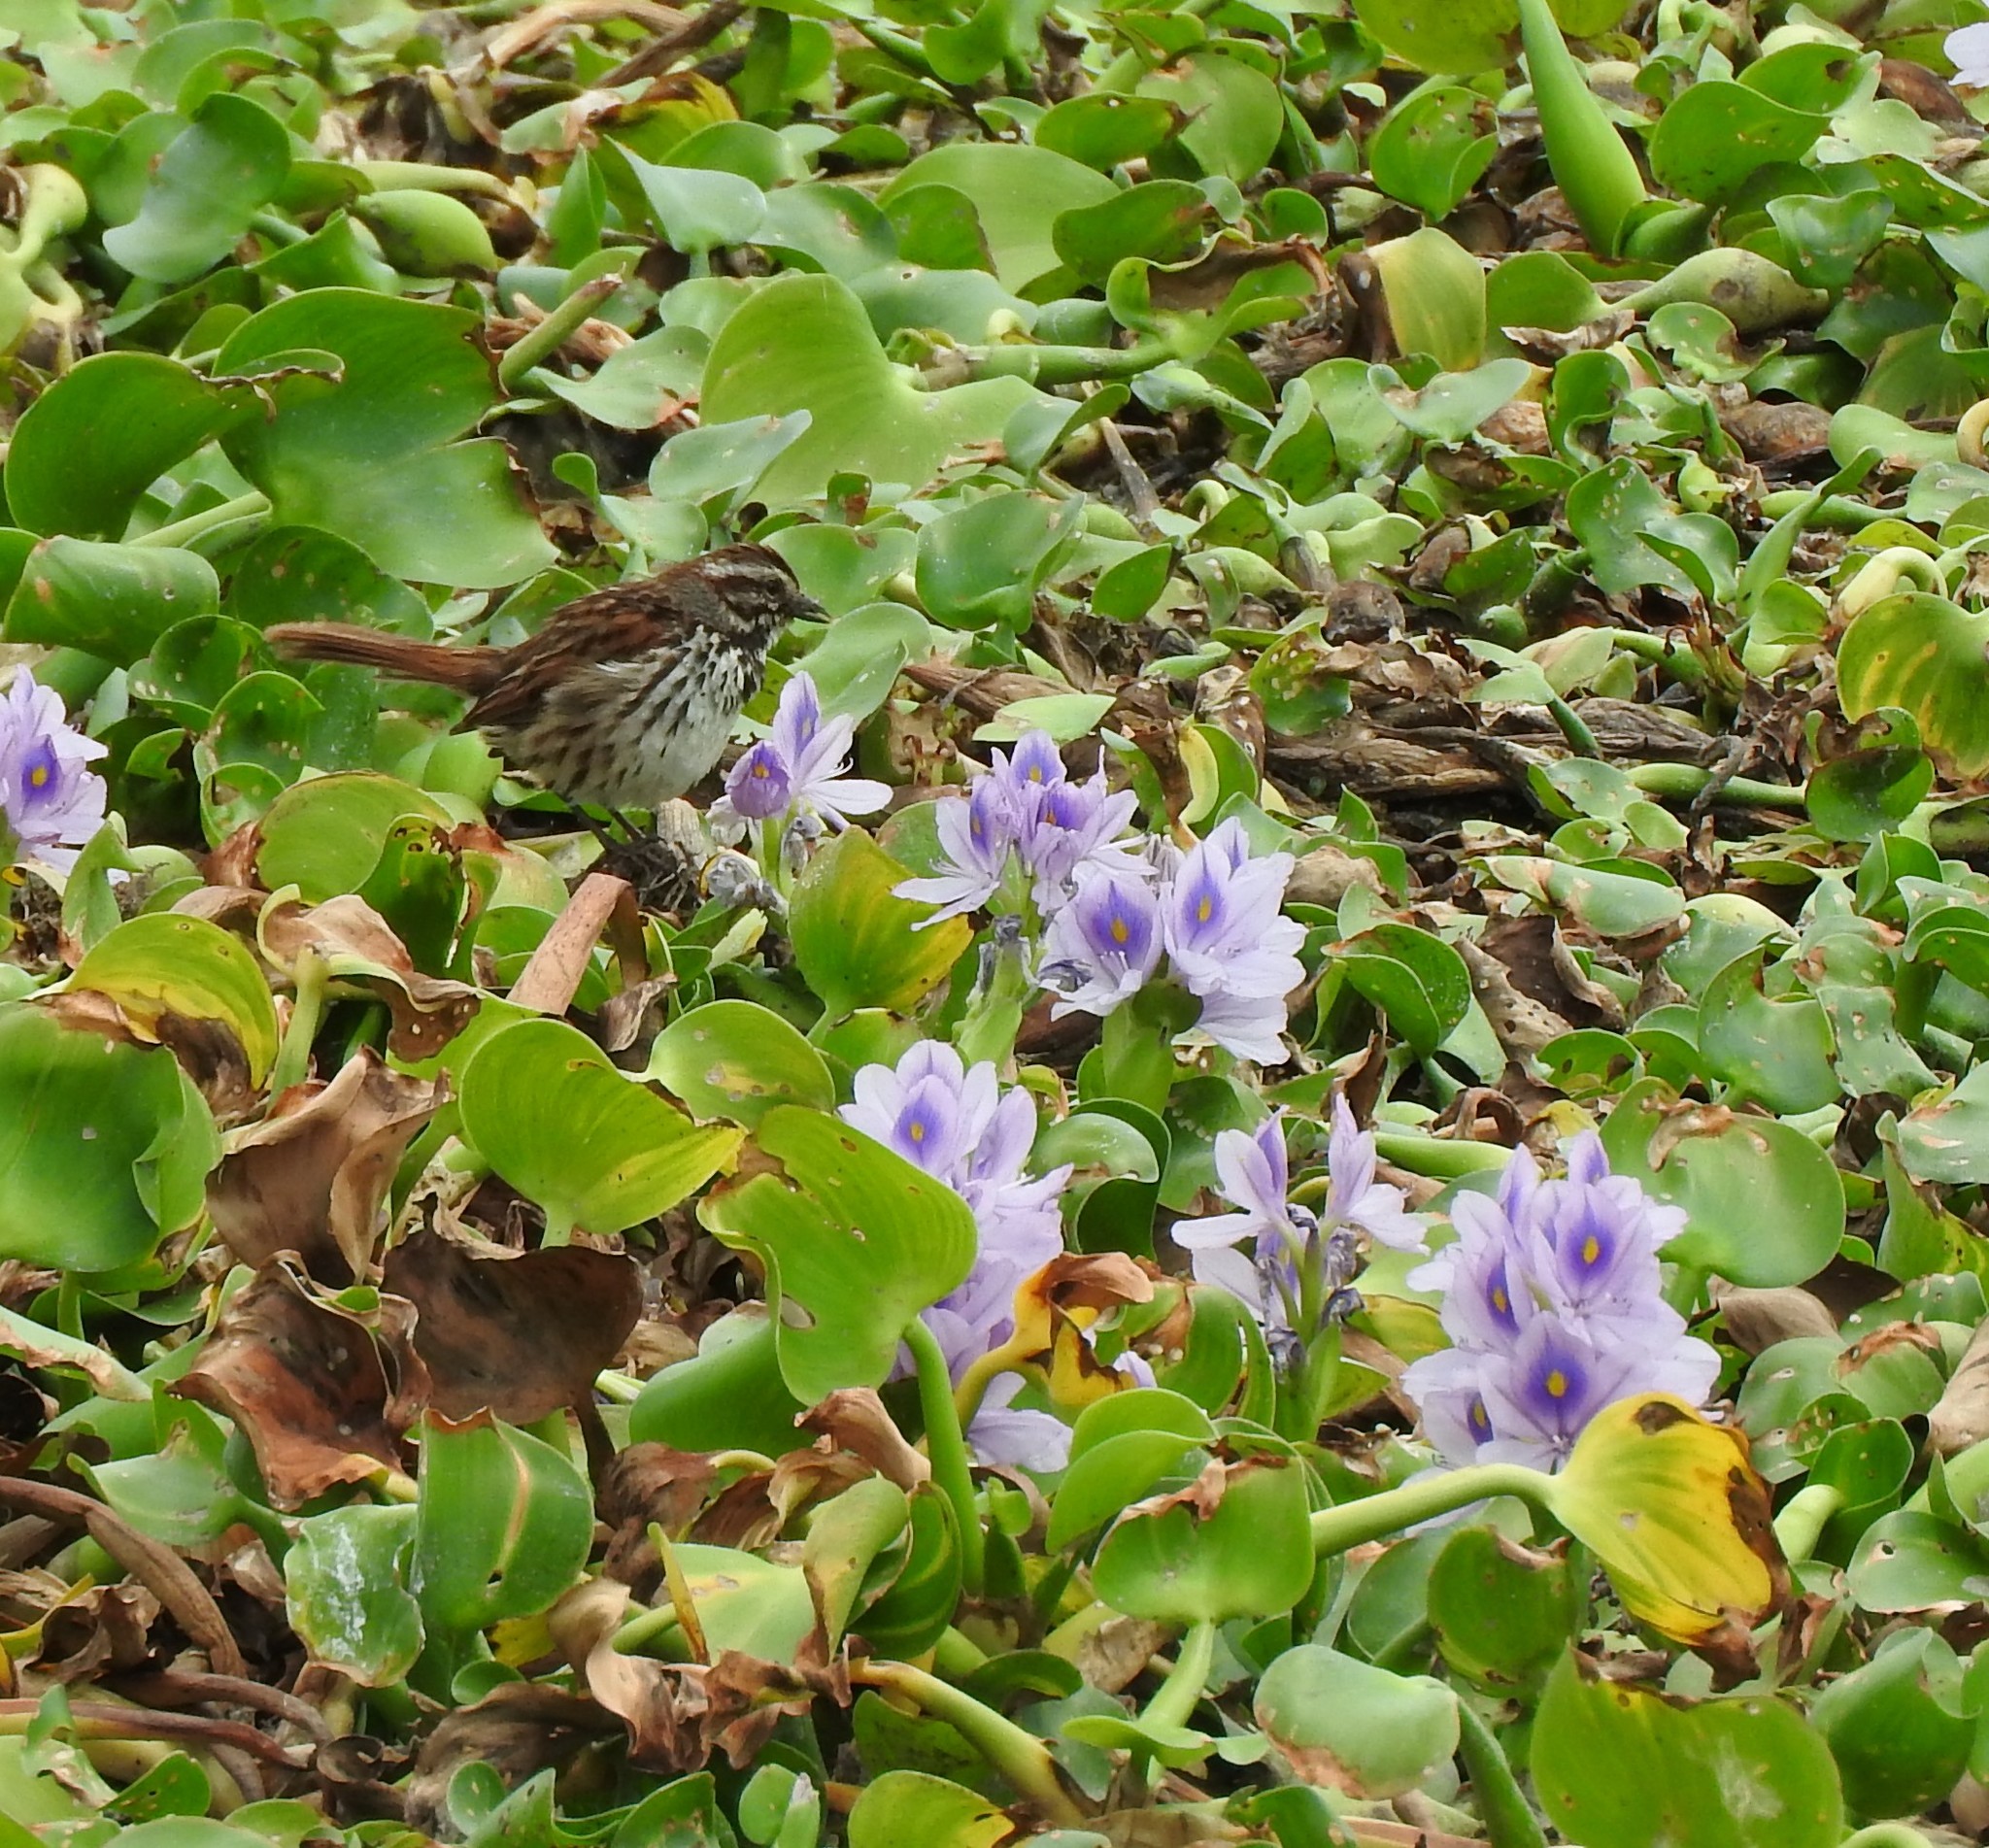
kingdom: Animalia
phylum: Chordata
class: Aves
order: Passeriformes
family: Passerellidae
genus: Melospiza
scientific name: Melospiza melodia
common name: Song sparrow
